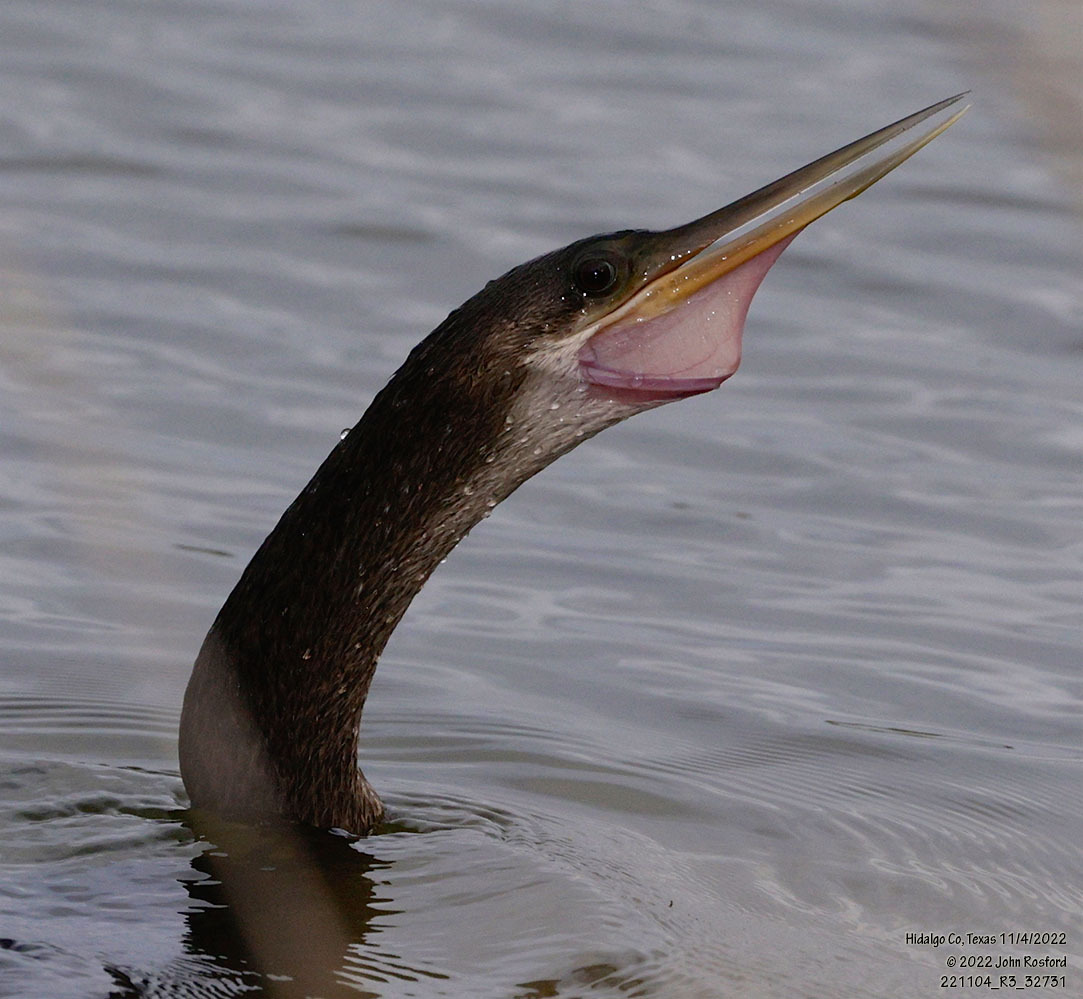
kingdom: Animalia
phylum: Chordata
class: Aves
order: Suliformes
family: Anhingidae
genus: Anhinga
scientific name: Anhinga anhinga
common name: Anhinga
